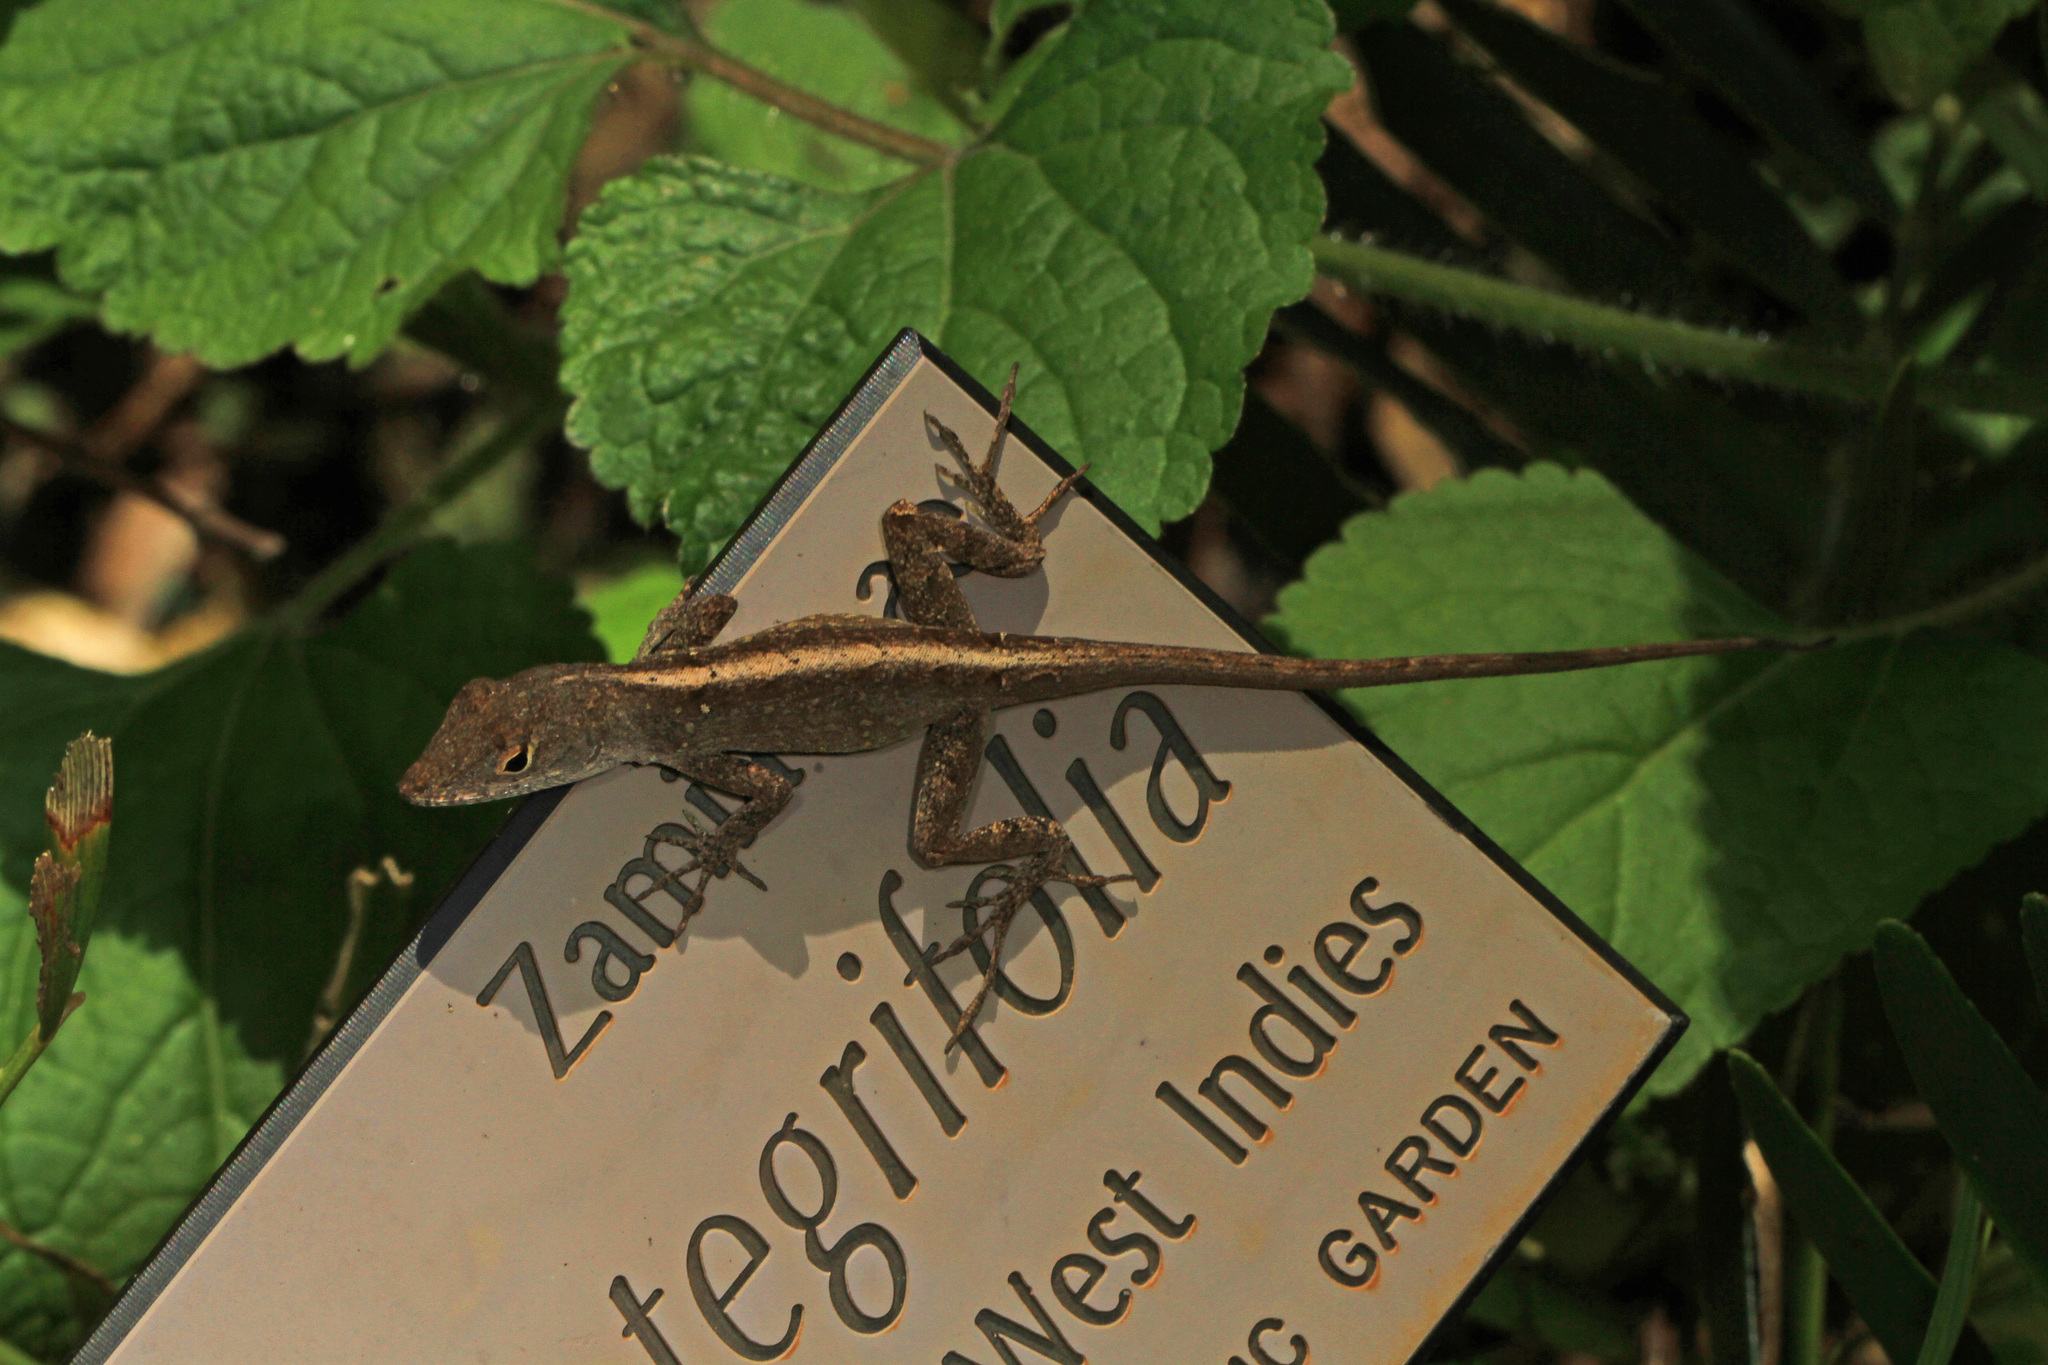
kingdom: Animalia
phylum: Chordata
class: Squamata
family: Dactyloidae
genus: Anolis
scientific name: Anolis sagrei
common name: Brown anole
